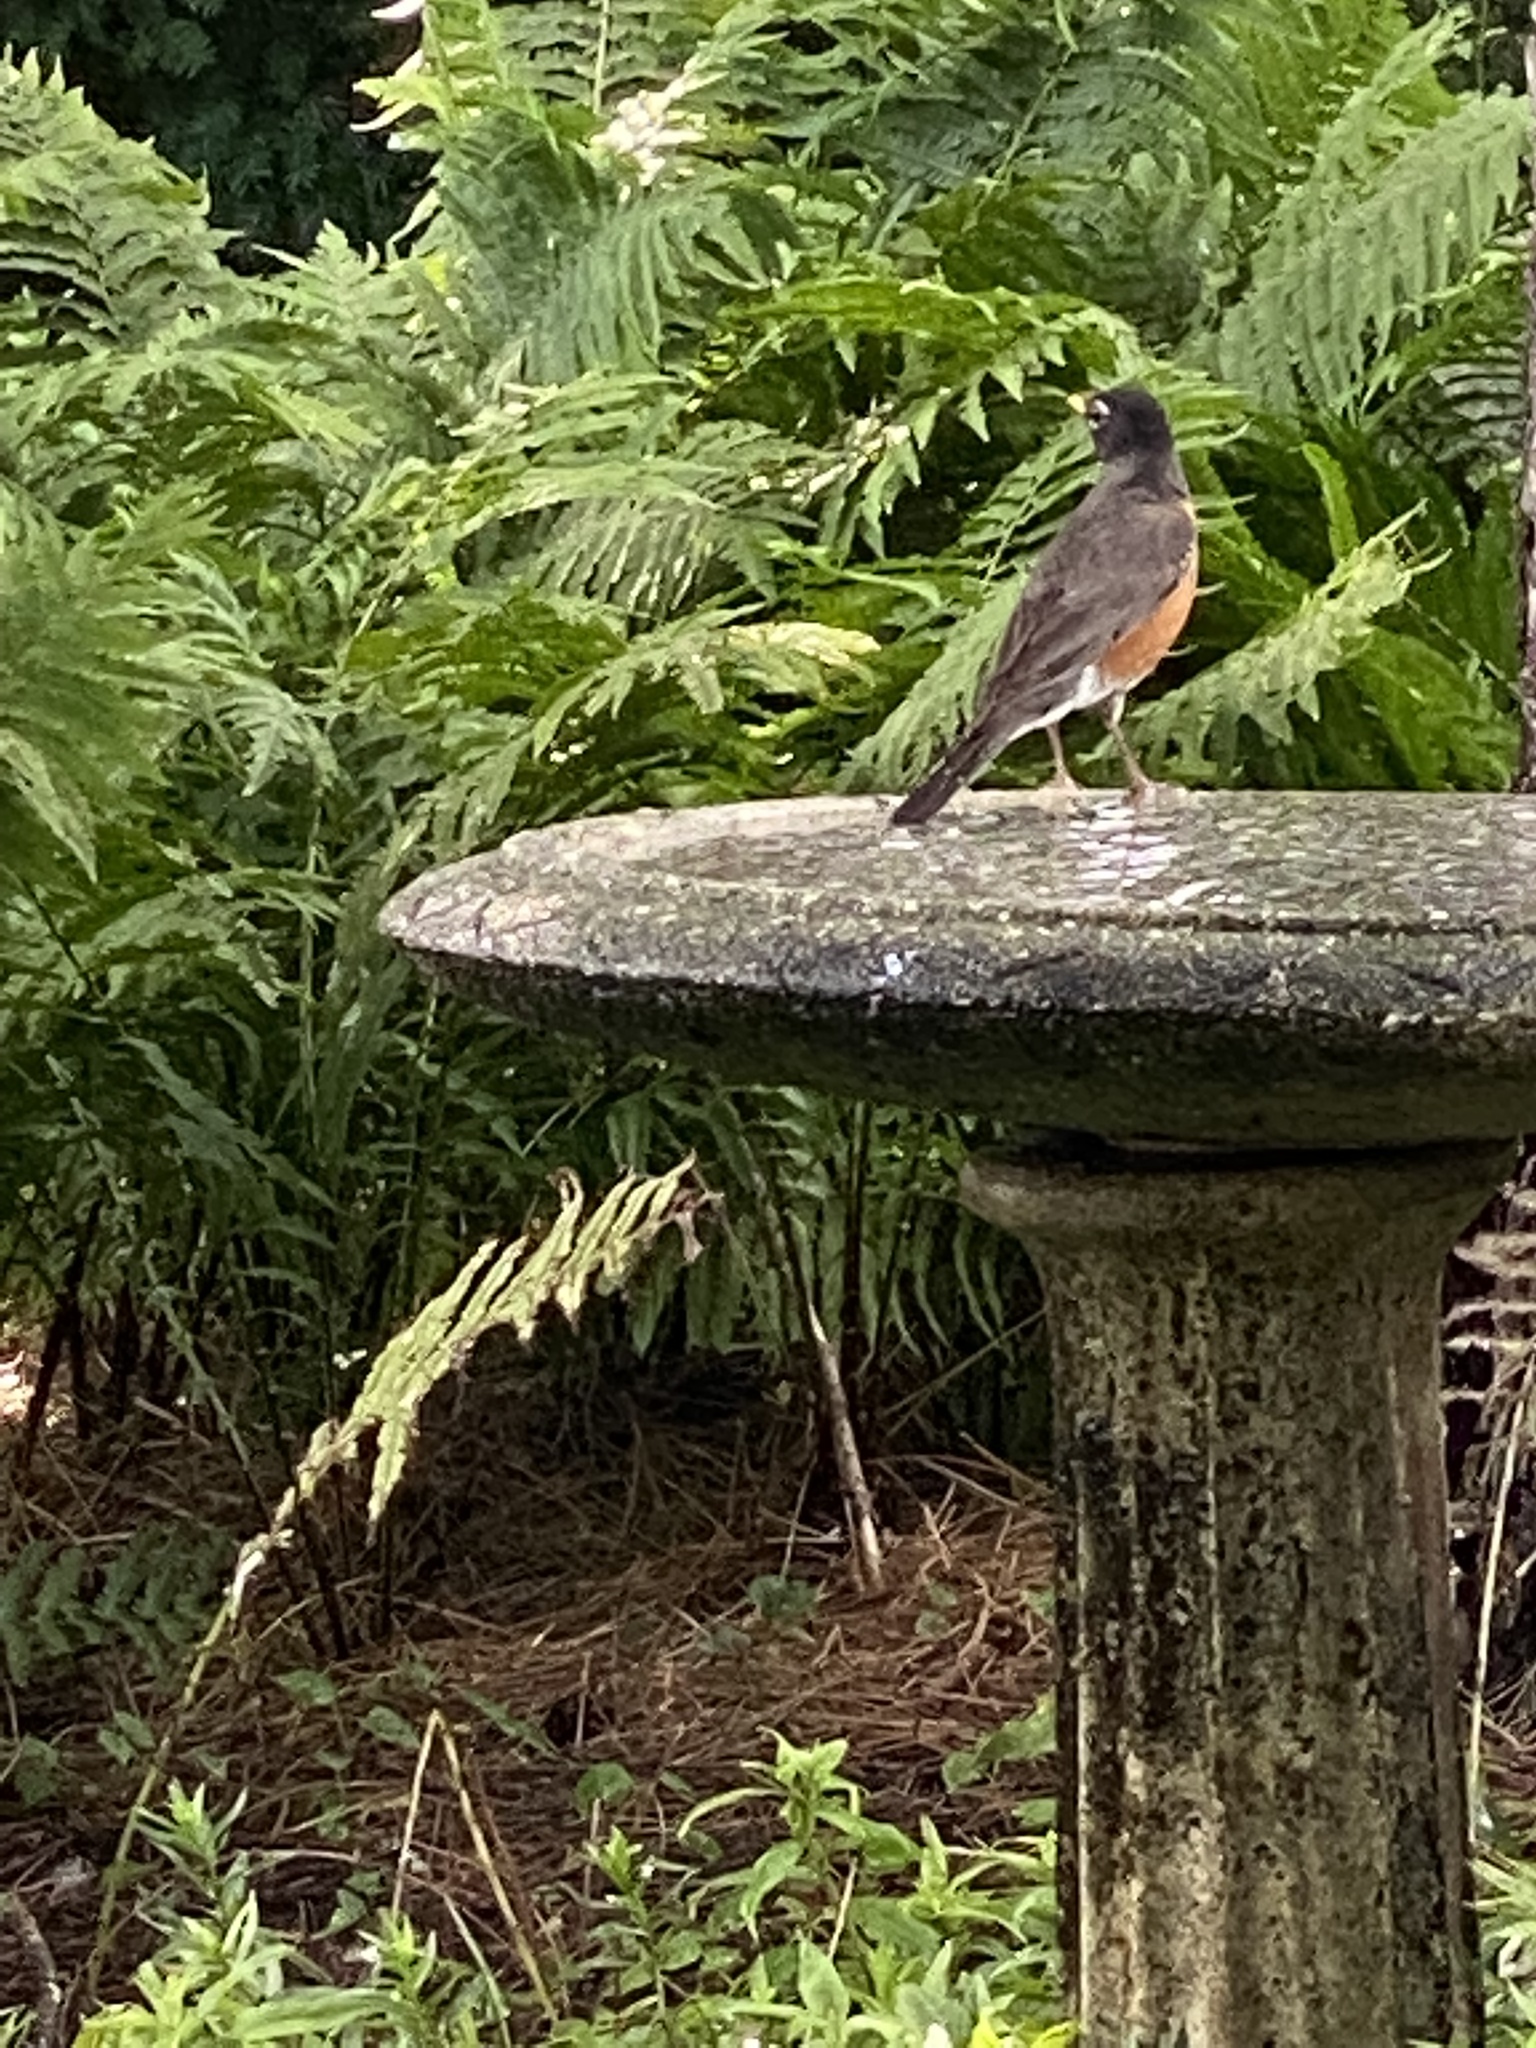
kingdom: Animalia
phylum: Chordata
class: Aves
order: Passeriformes
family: Turdidae
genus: Turdus
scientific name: Turdus migratorius
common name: American robin
